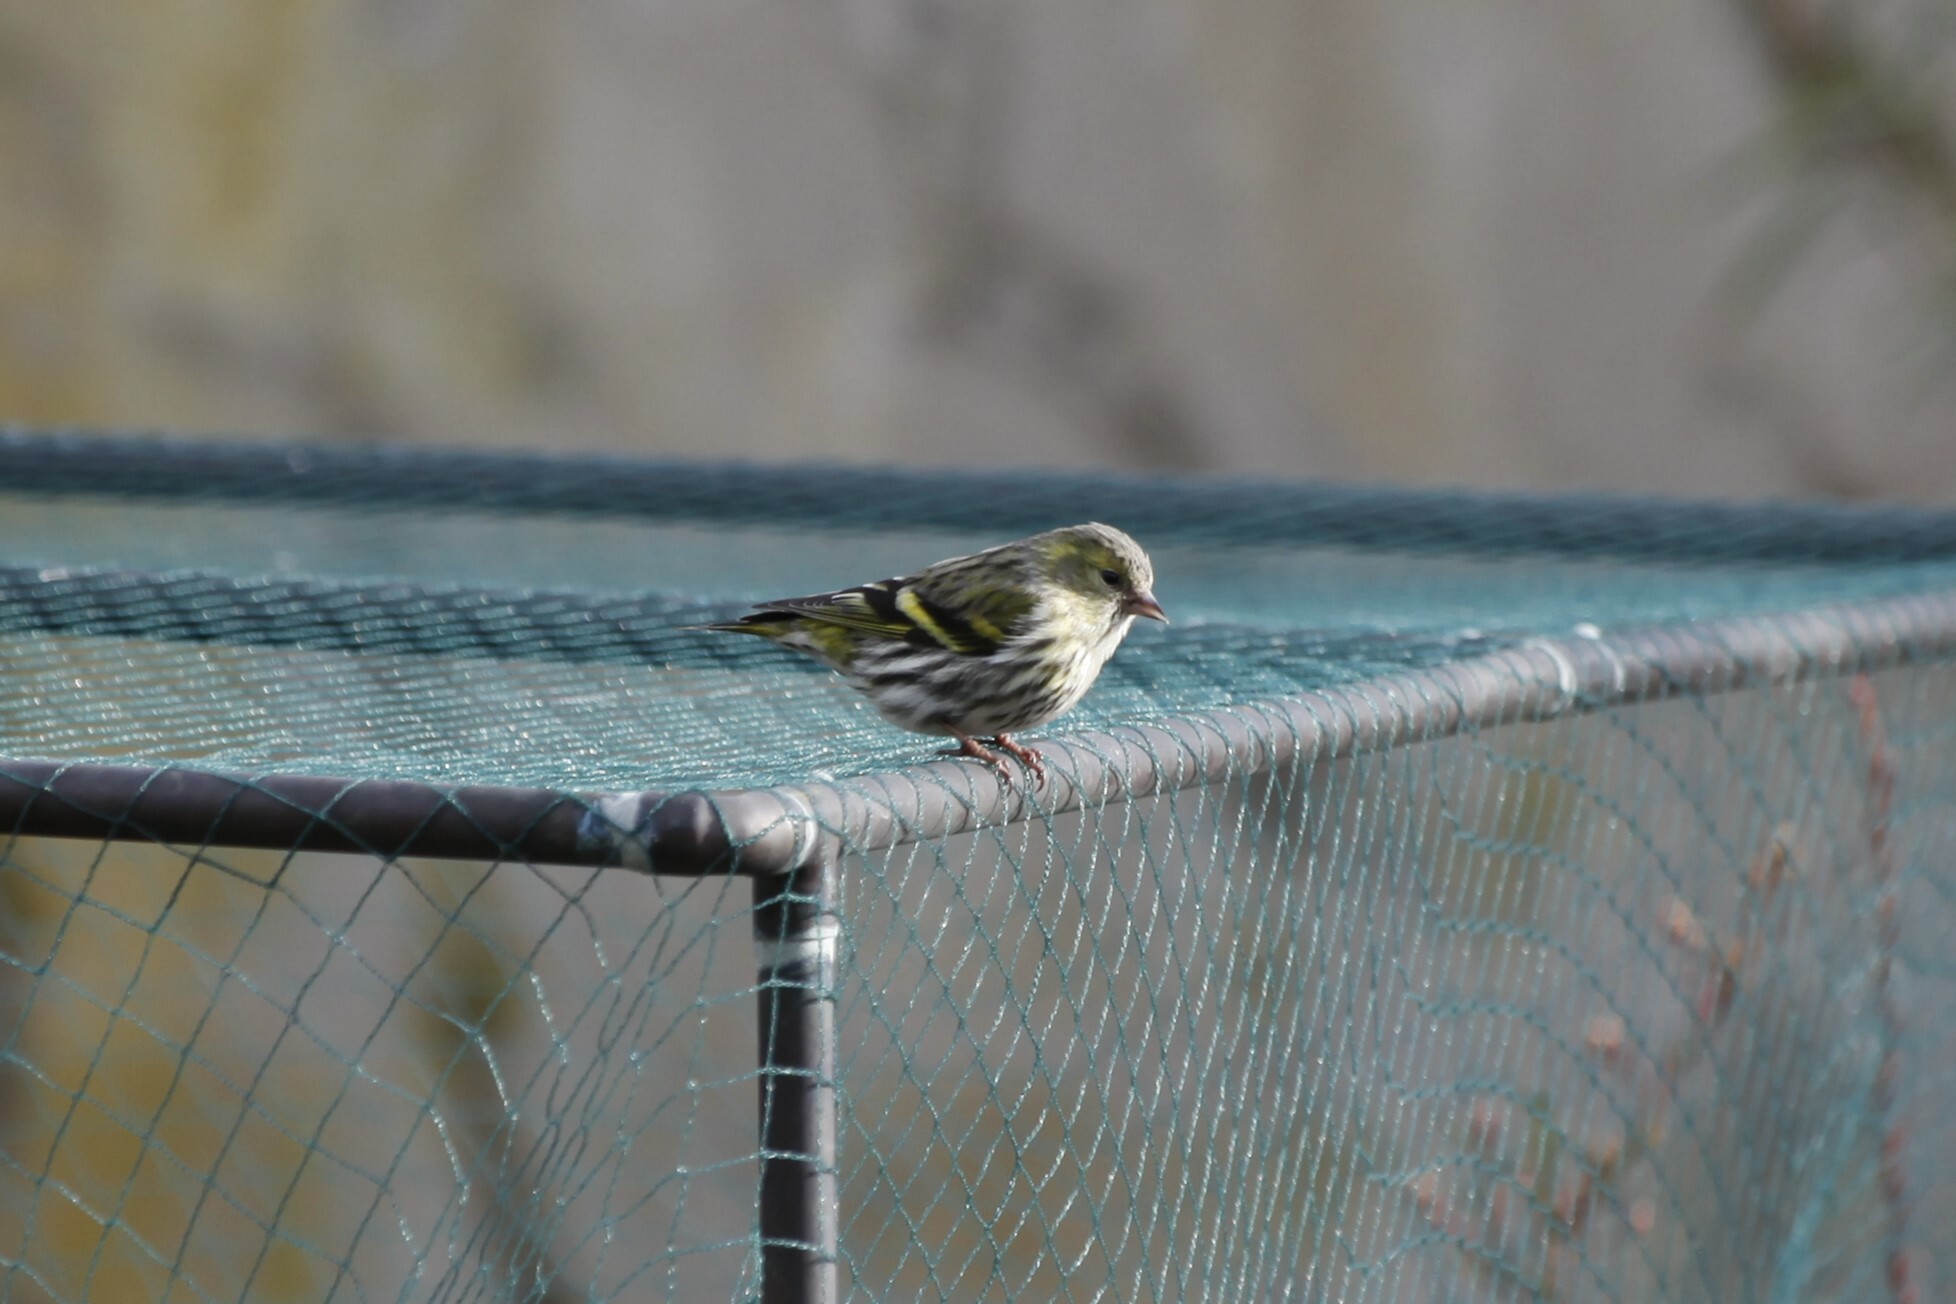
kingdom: Animalia
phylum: Chordata
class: Aves
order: Passeriformes
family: Fringillidae
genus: Spinus
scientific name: Spinus spinus
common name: Eurasian siskin
